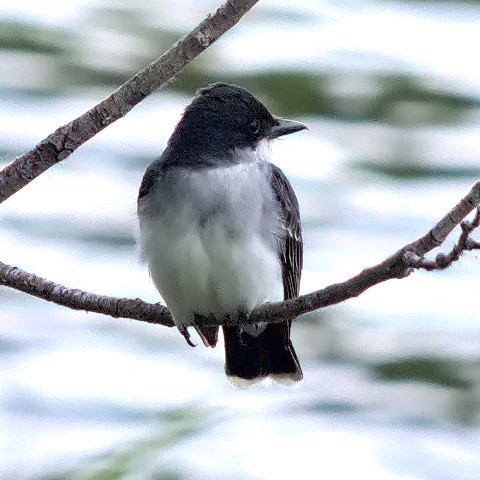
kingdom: Animalia
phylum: Chordata
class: Aves
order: Passeriformes
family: Tyrannidae
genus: Tyrannus
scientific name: Tyrannus tyrannus
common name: Eastern kingbird
